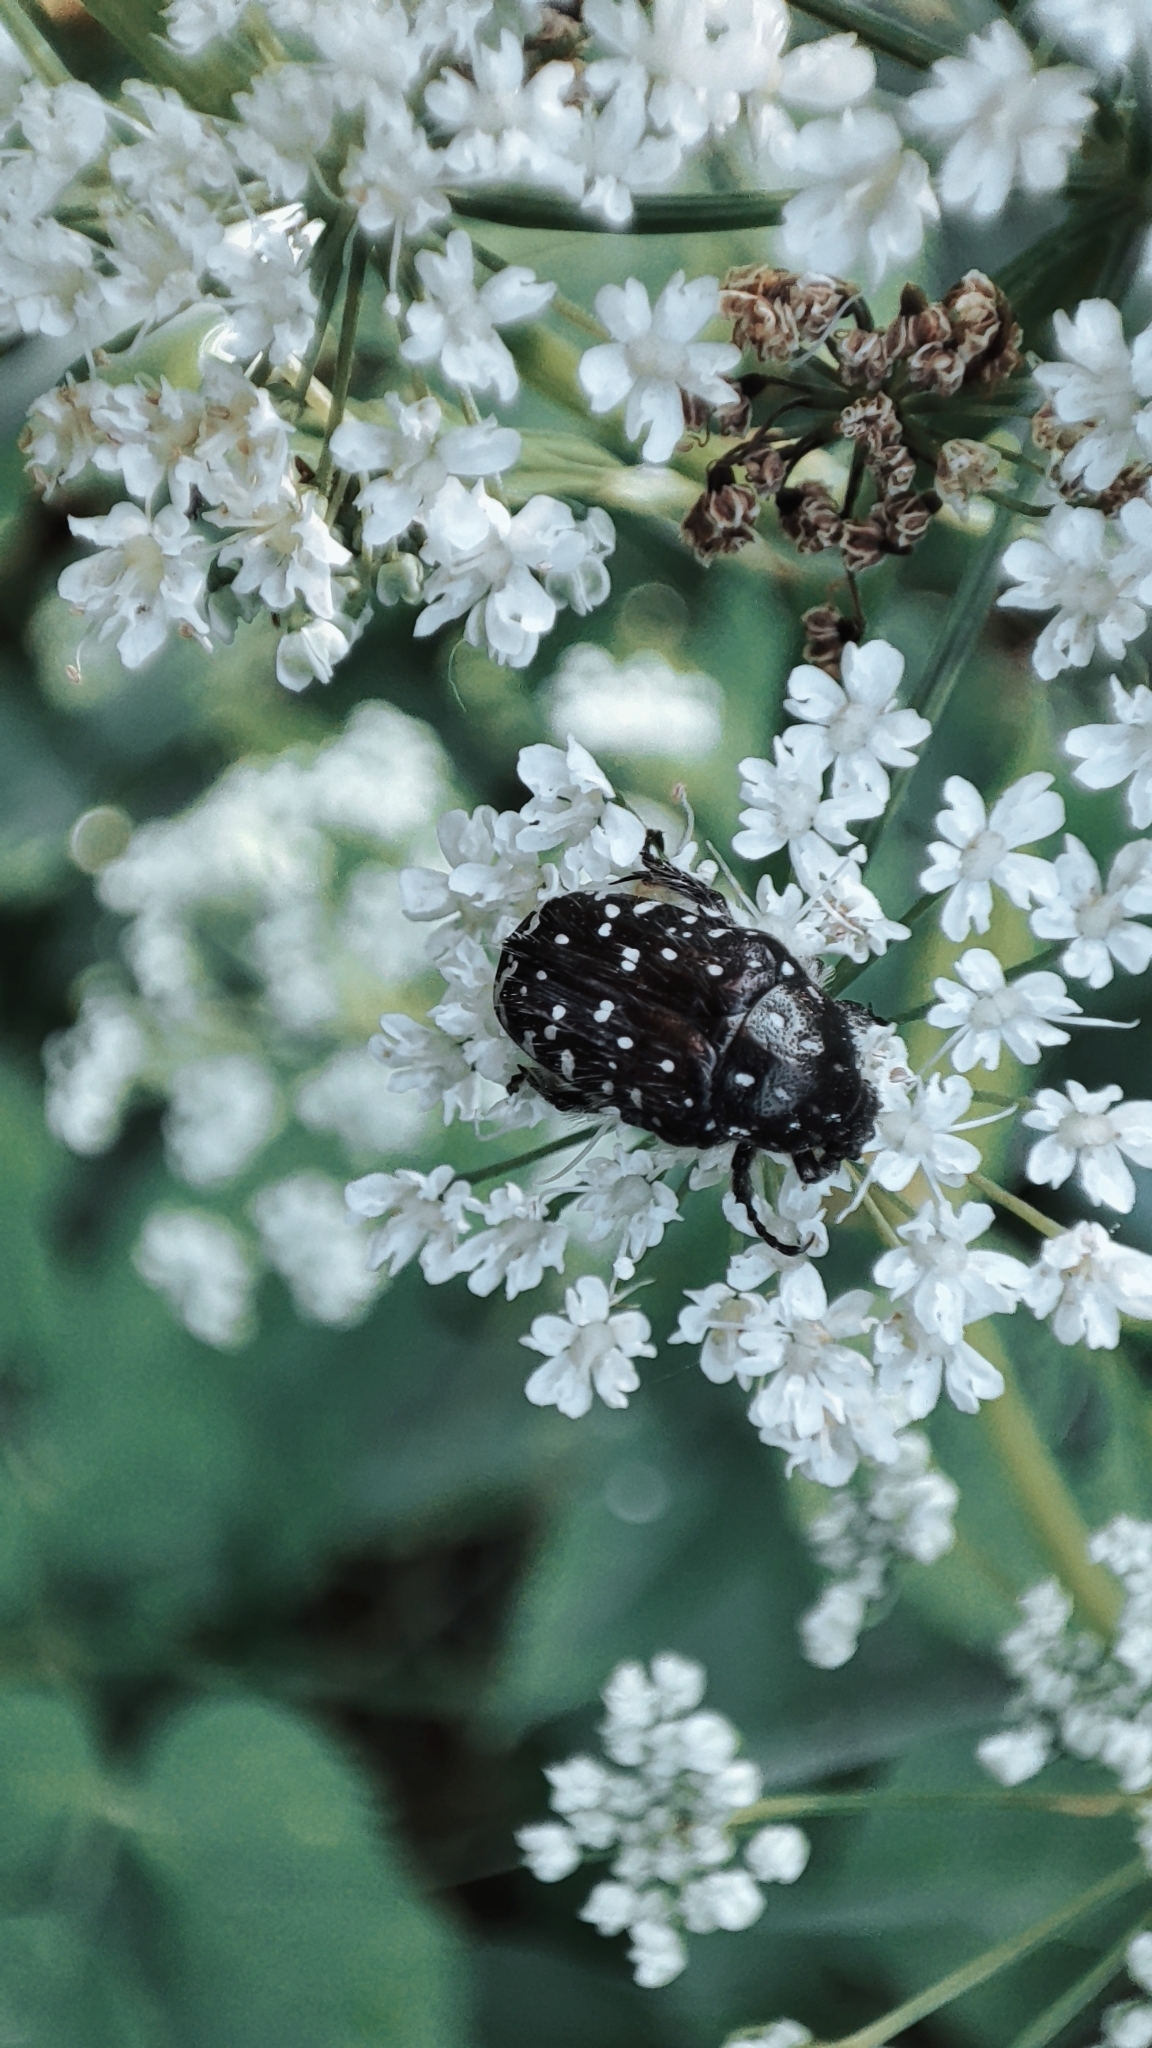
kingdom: Animalia
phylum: Arthropoda
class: Insecta
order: Coleoptera
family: Scarabaeidae
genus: Oxythyrea
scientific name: Oxythyrea funesta
